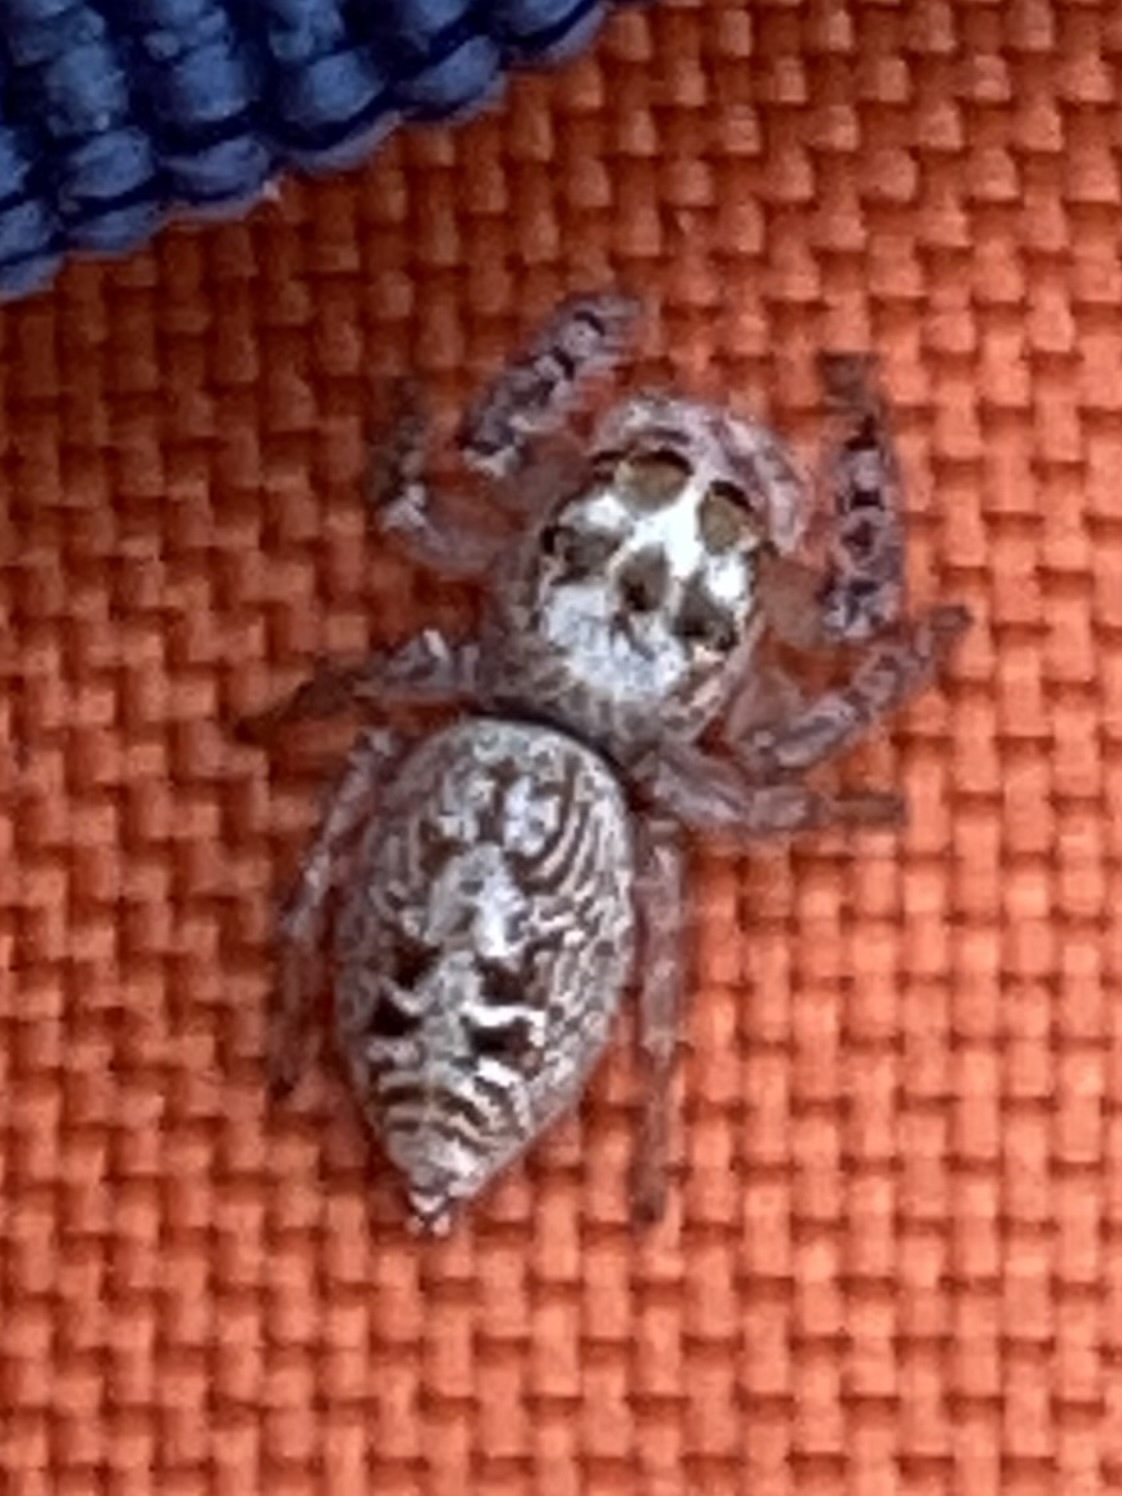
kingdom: Animalia
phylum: Arthropoda
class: Arachnida
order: Araneae
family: Salticidae
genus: Opisthoncus
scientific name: Opisthoncus polyphemus
